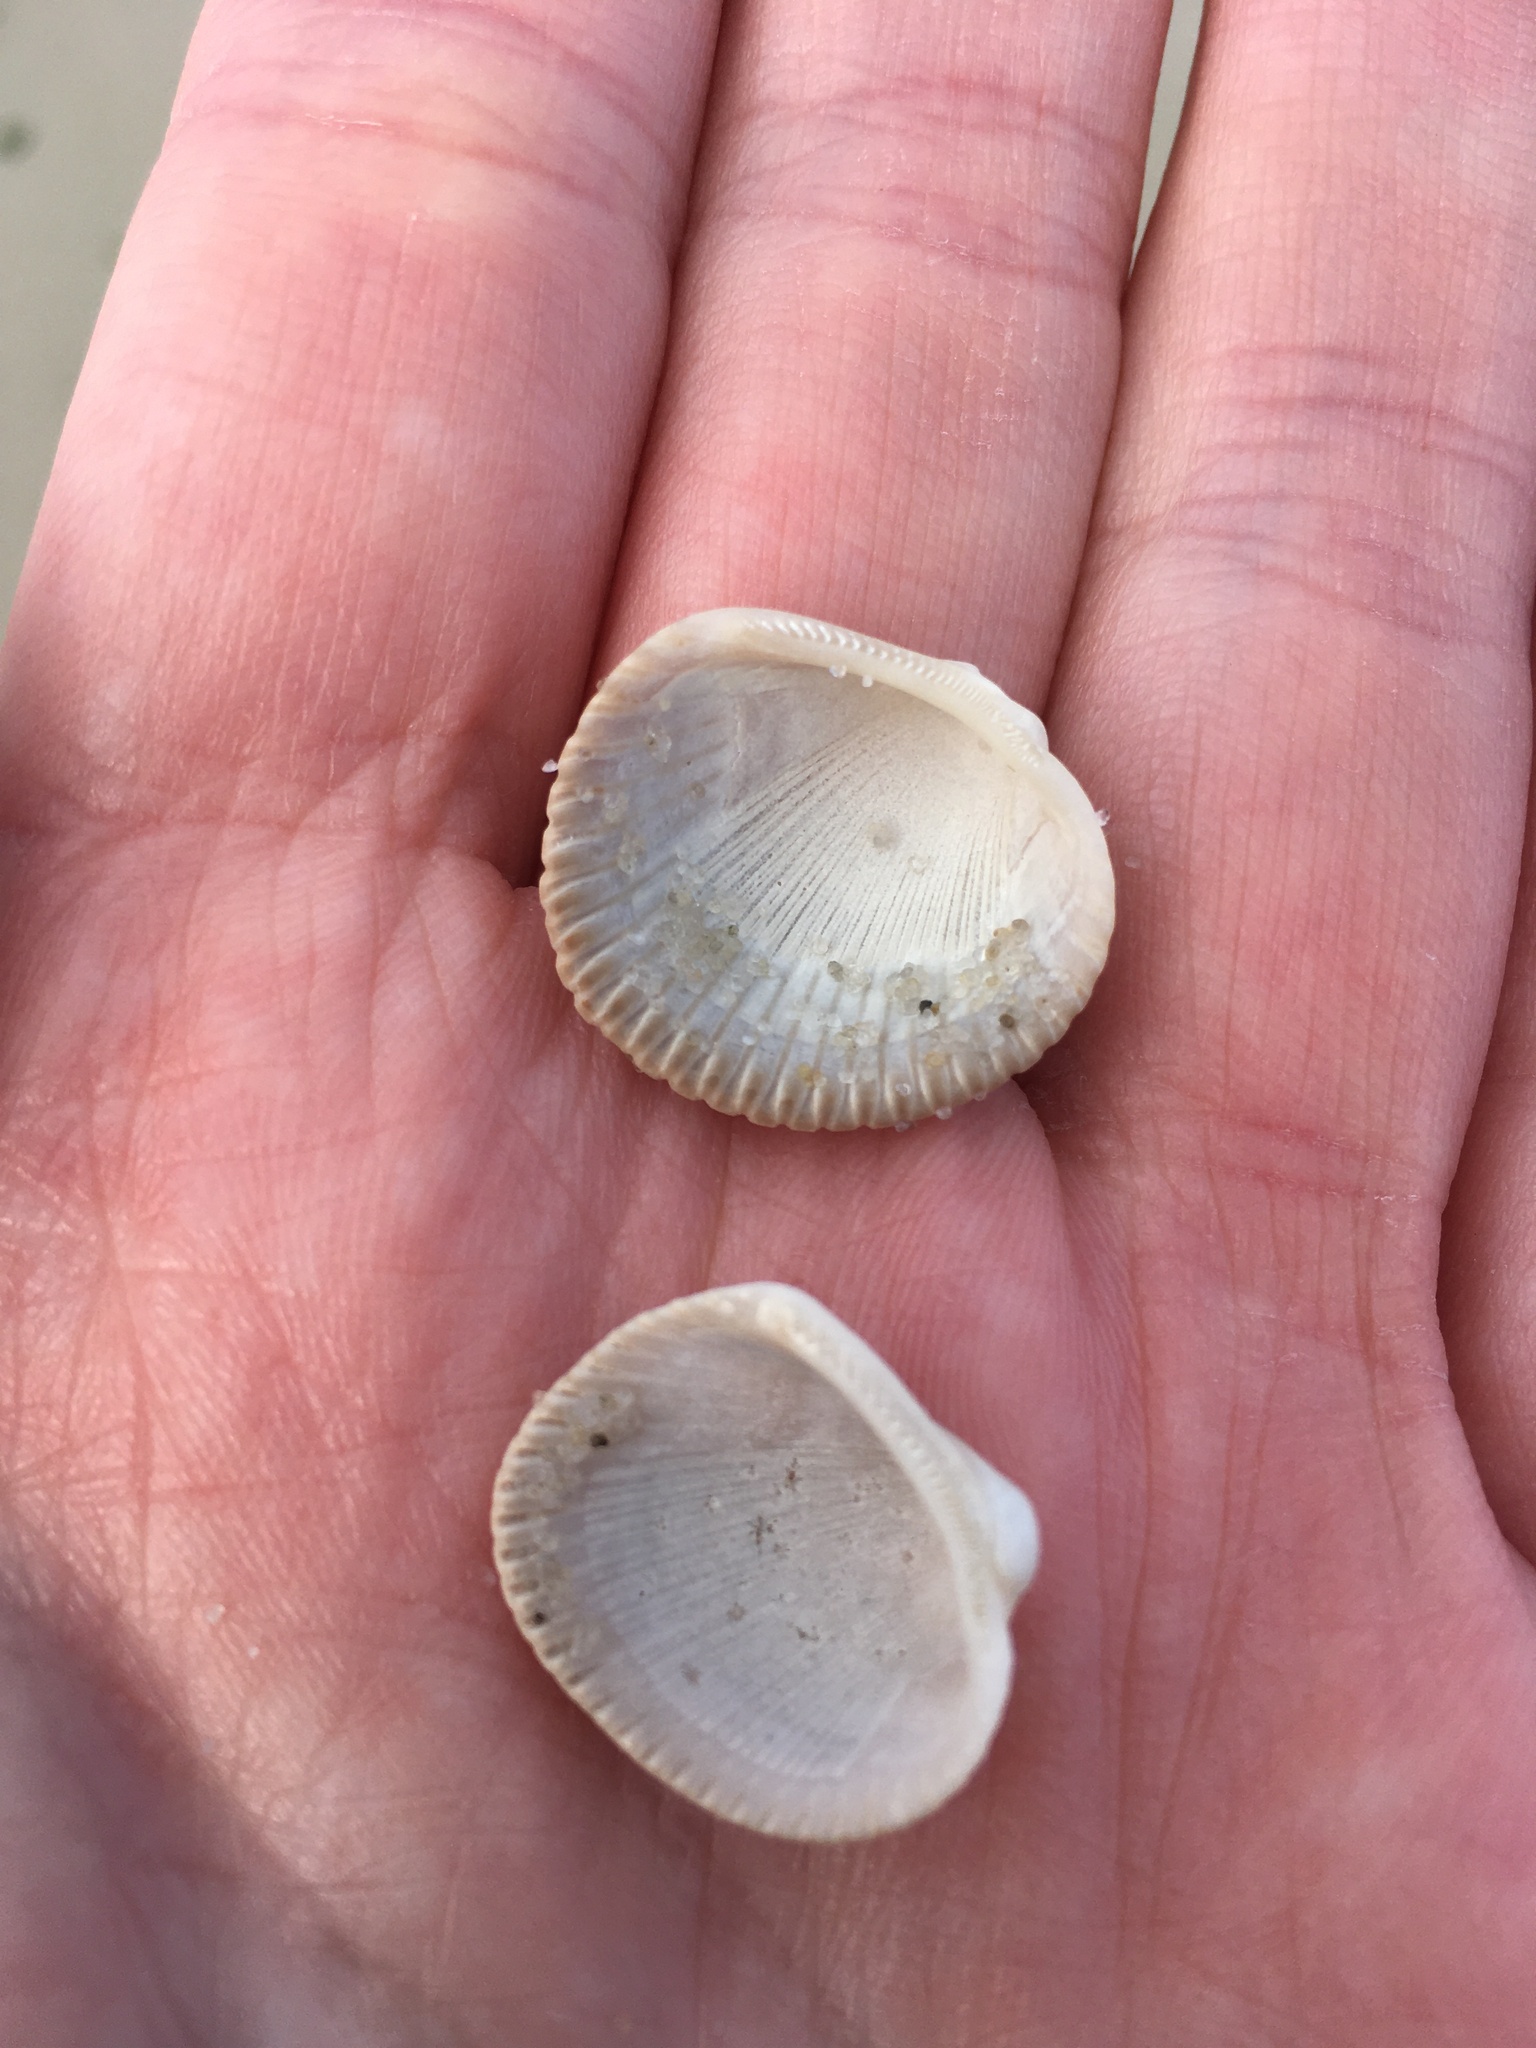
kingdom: Animalia
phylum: Mollusca
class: Bivalvia
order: Arcida
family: Arcidae
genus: Lunarca
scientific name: Lunarca ovalis
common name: Blood ark
